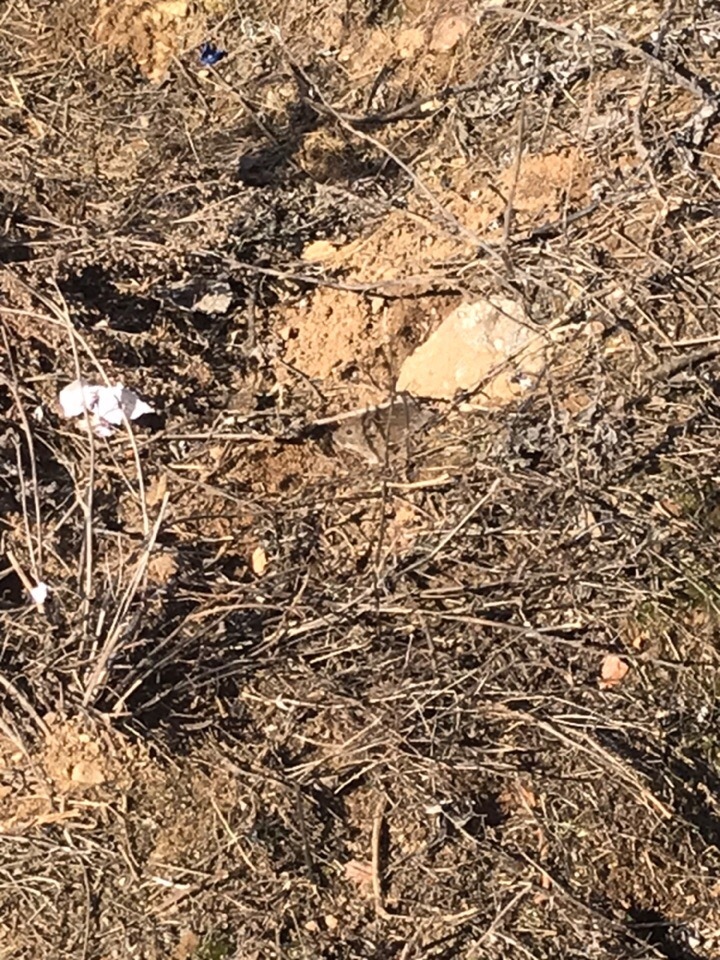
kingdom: Animalia
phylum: Chordata
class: Mammalia
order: Rodentia
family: Cricetidae
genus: Microtus
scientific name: Microtus arvalis
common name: Common vole
